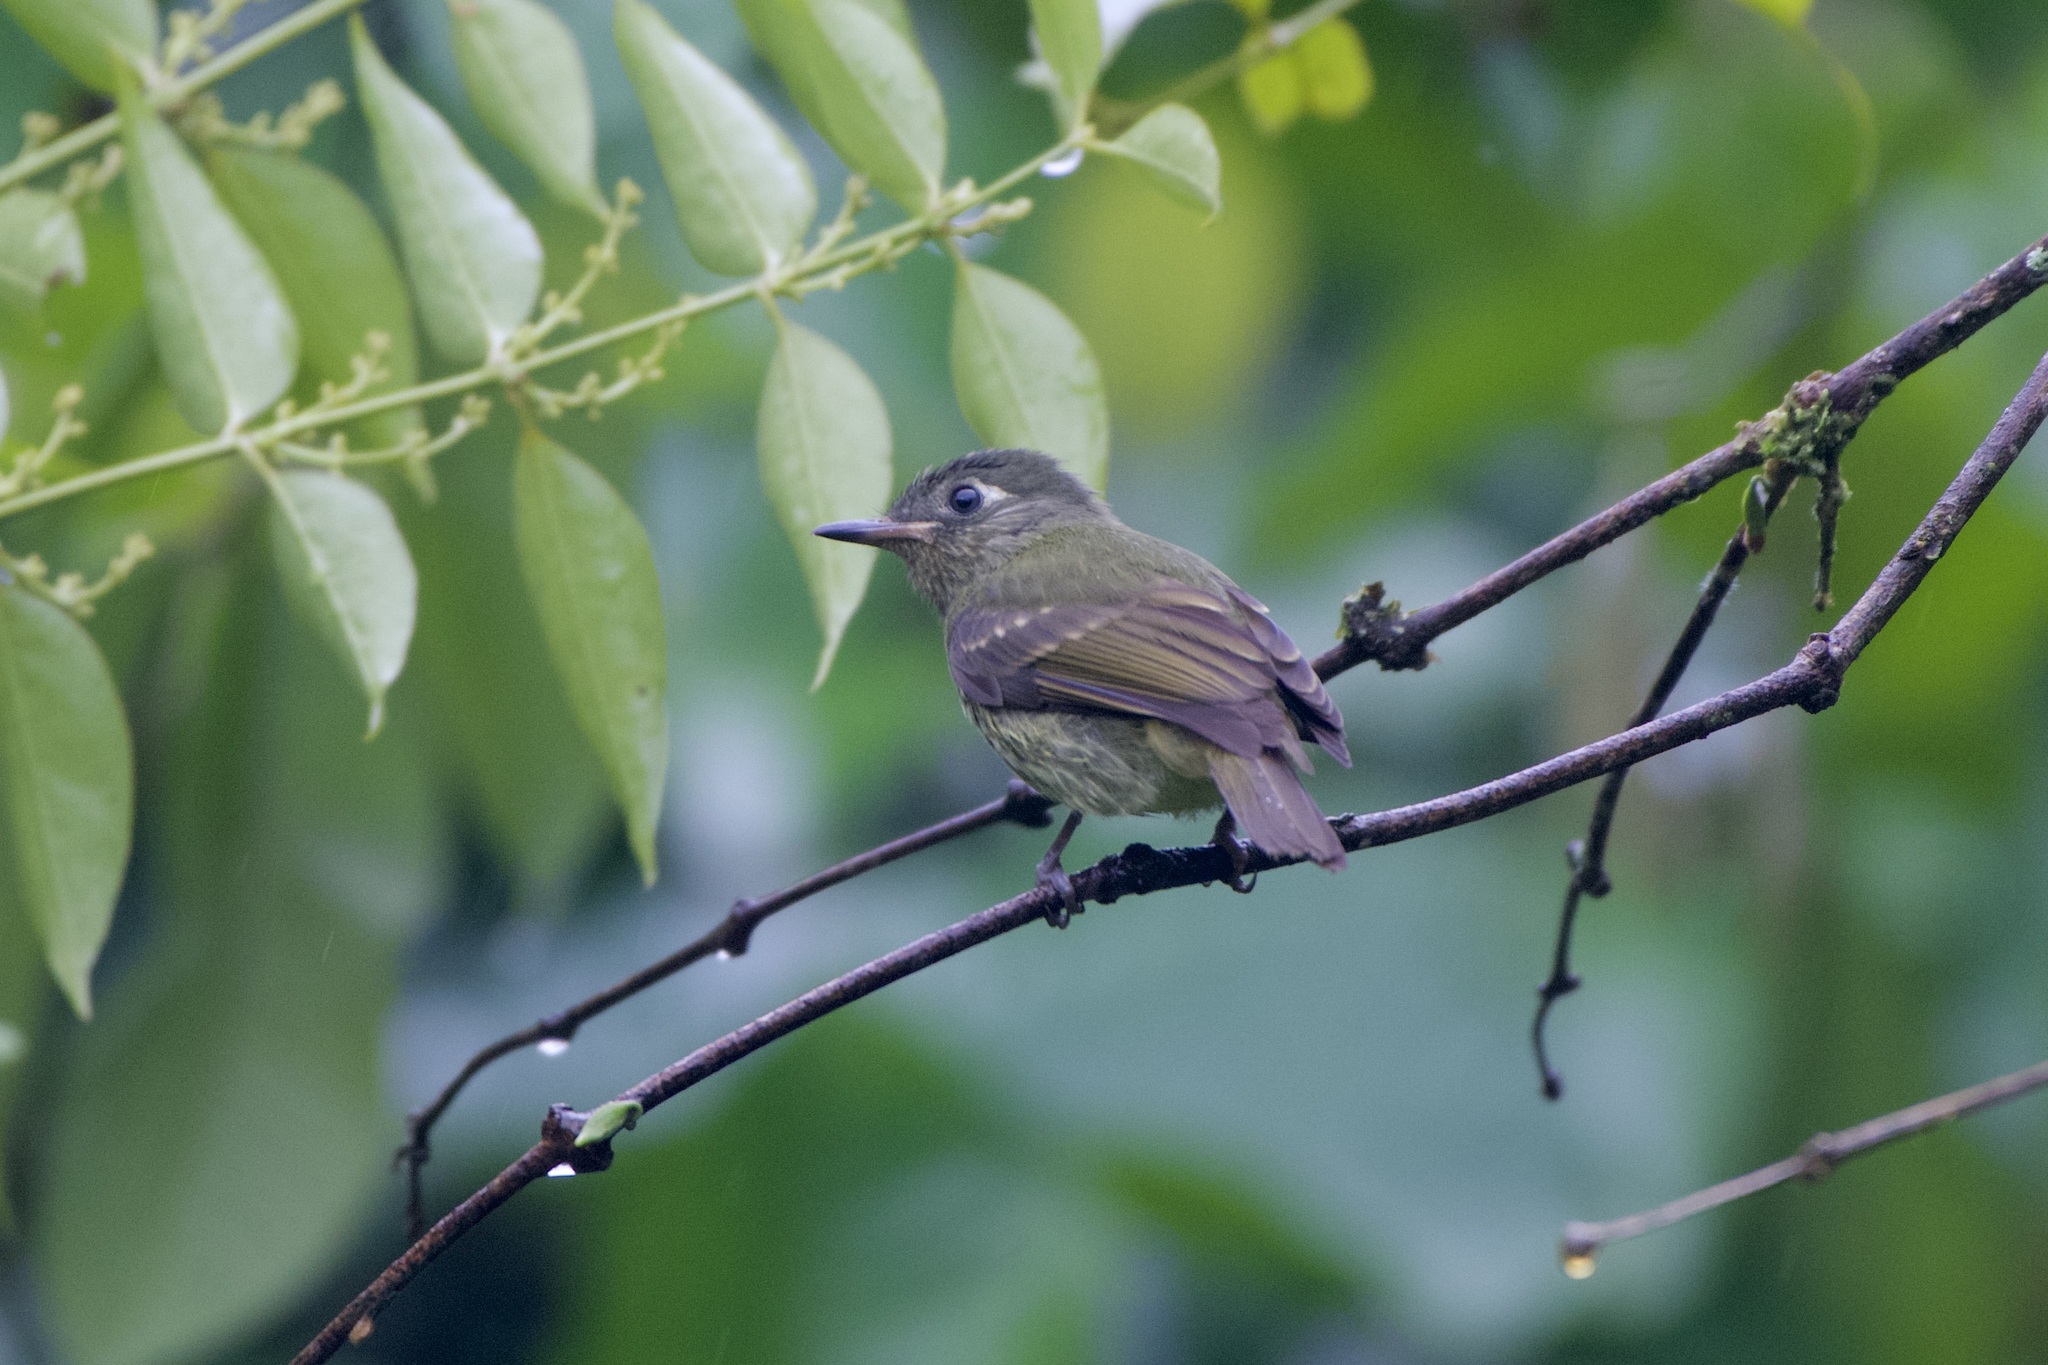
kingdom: Animalia
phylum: Chordata
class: Aves
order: Passeriformes
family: Tyrannidae
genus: Mionectes
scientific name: Mionectes galbinus
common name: Olive-striped flycatcher
